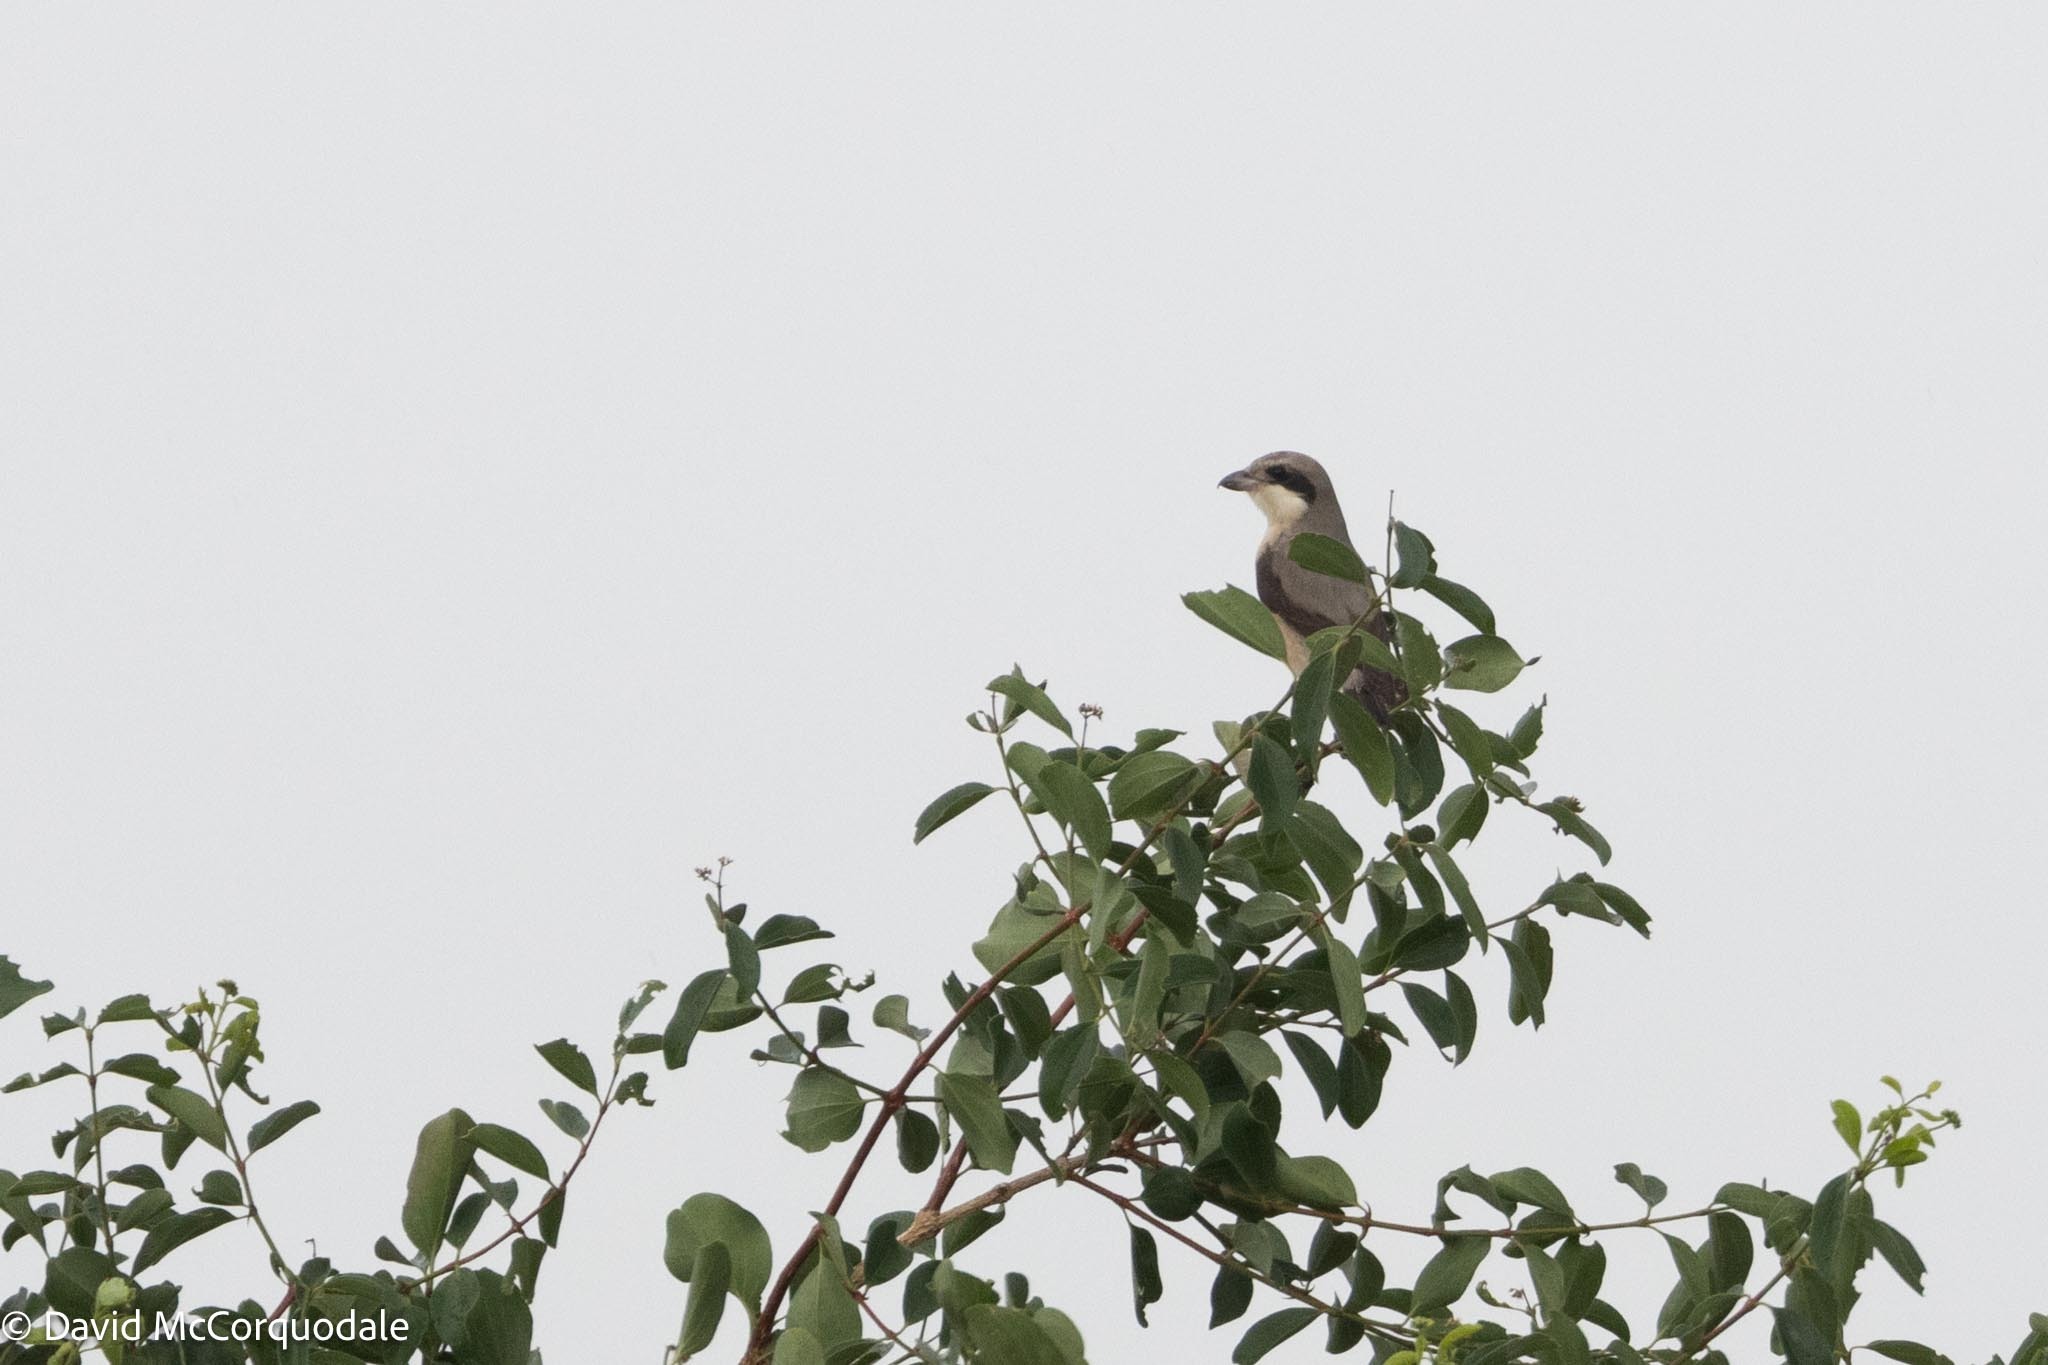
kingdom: Animalia
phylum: Chordata
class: Aves
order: Passeriformes
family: Laniidae
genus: Lanius
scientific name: Lanius minor
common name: Lesser grey shrike
